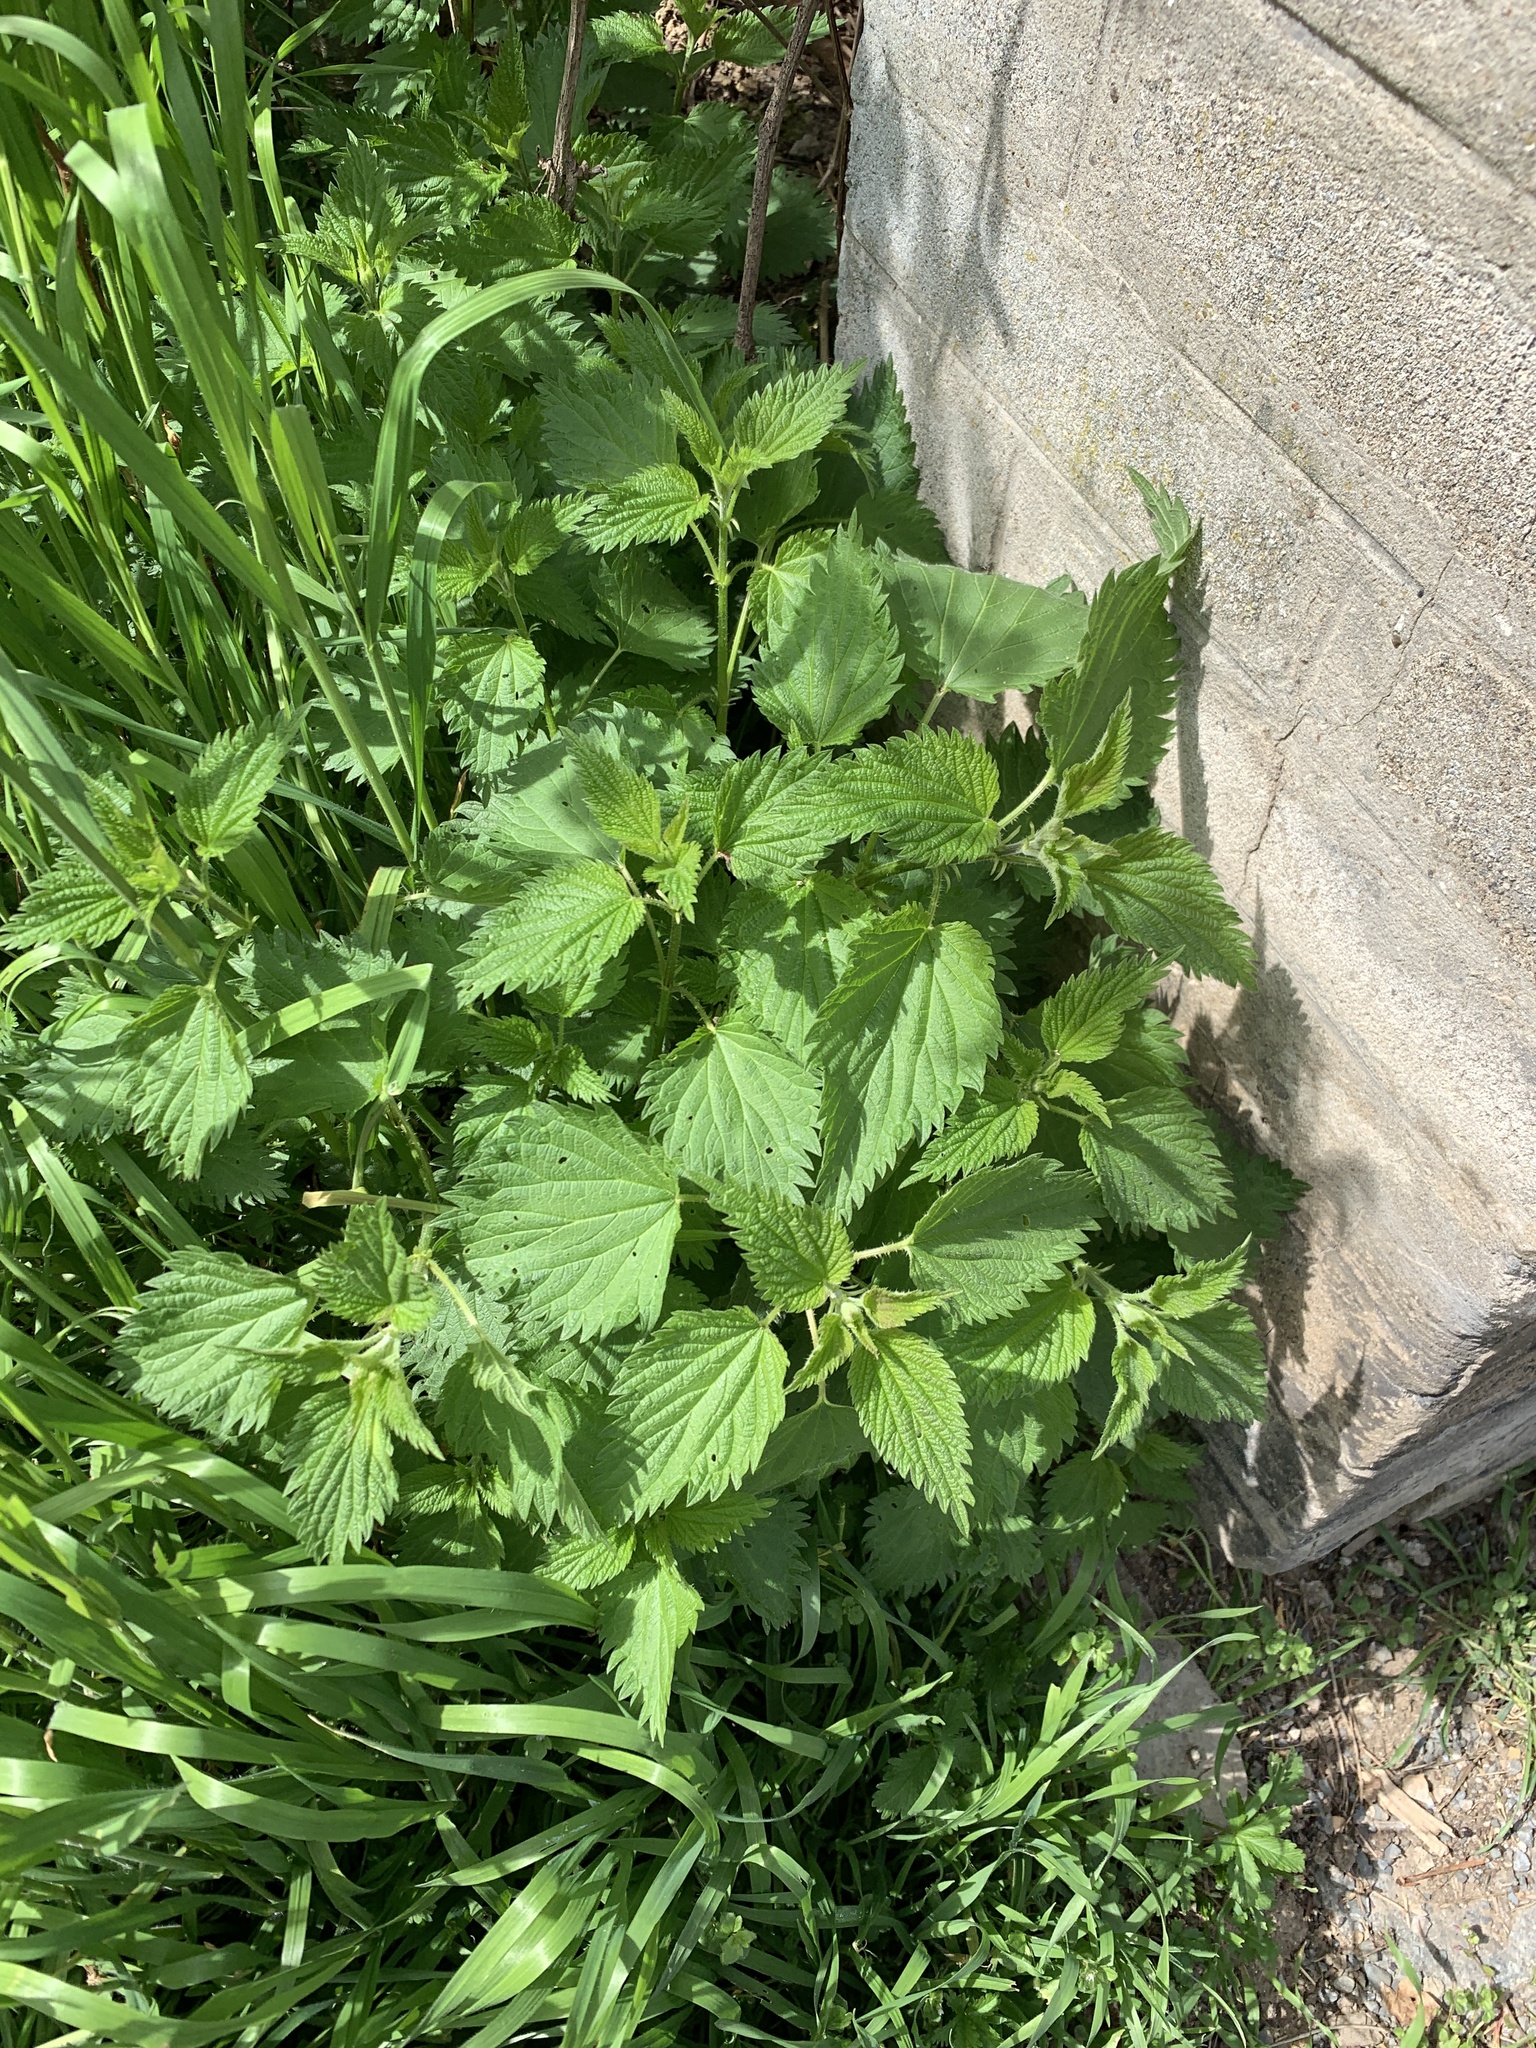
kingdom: Plantae
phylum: Tracheophyta
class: Magnoliopsida
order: Rosales
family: Urticaceae
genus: Urtica
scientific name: Urtica dioica
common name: Common nettle
